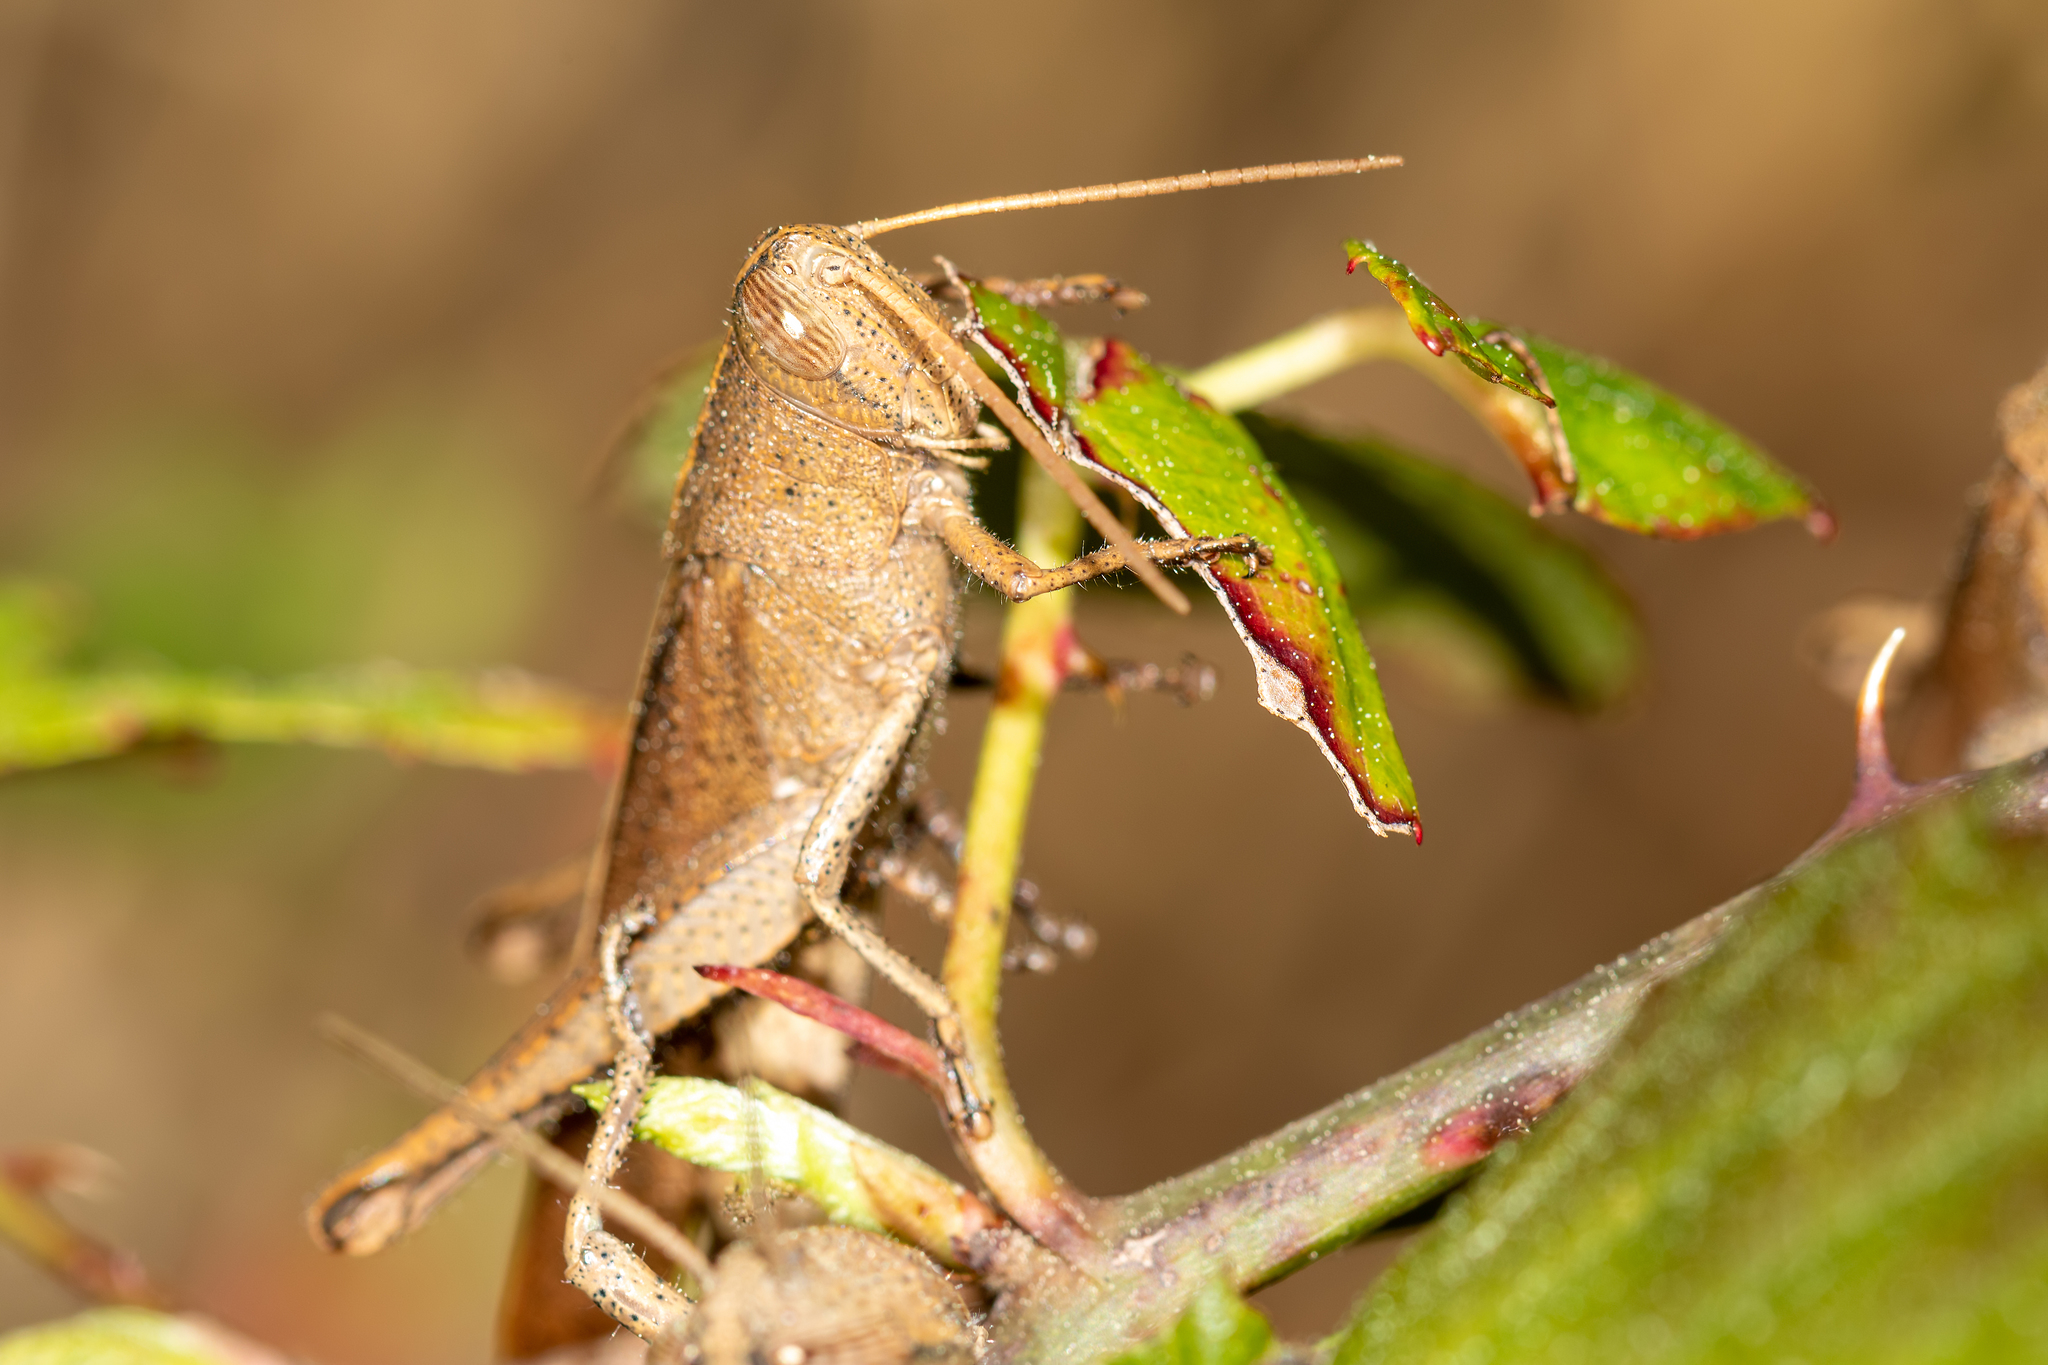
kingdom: Animalia
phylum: Arthropoda
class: Insecta
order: Orthoptera
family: Acrididae
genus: Schistocerca
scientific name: Schistocerca damnifica
